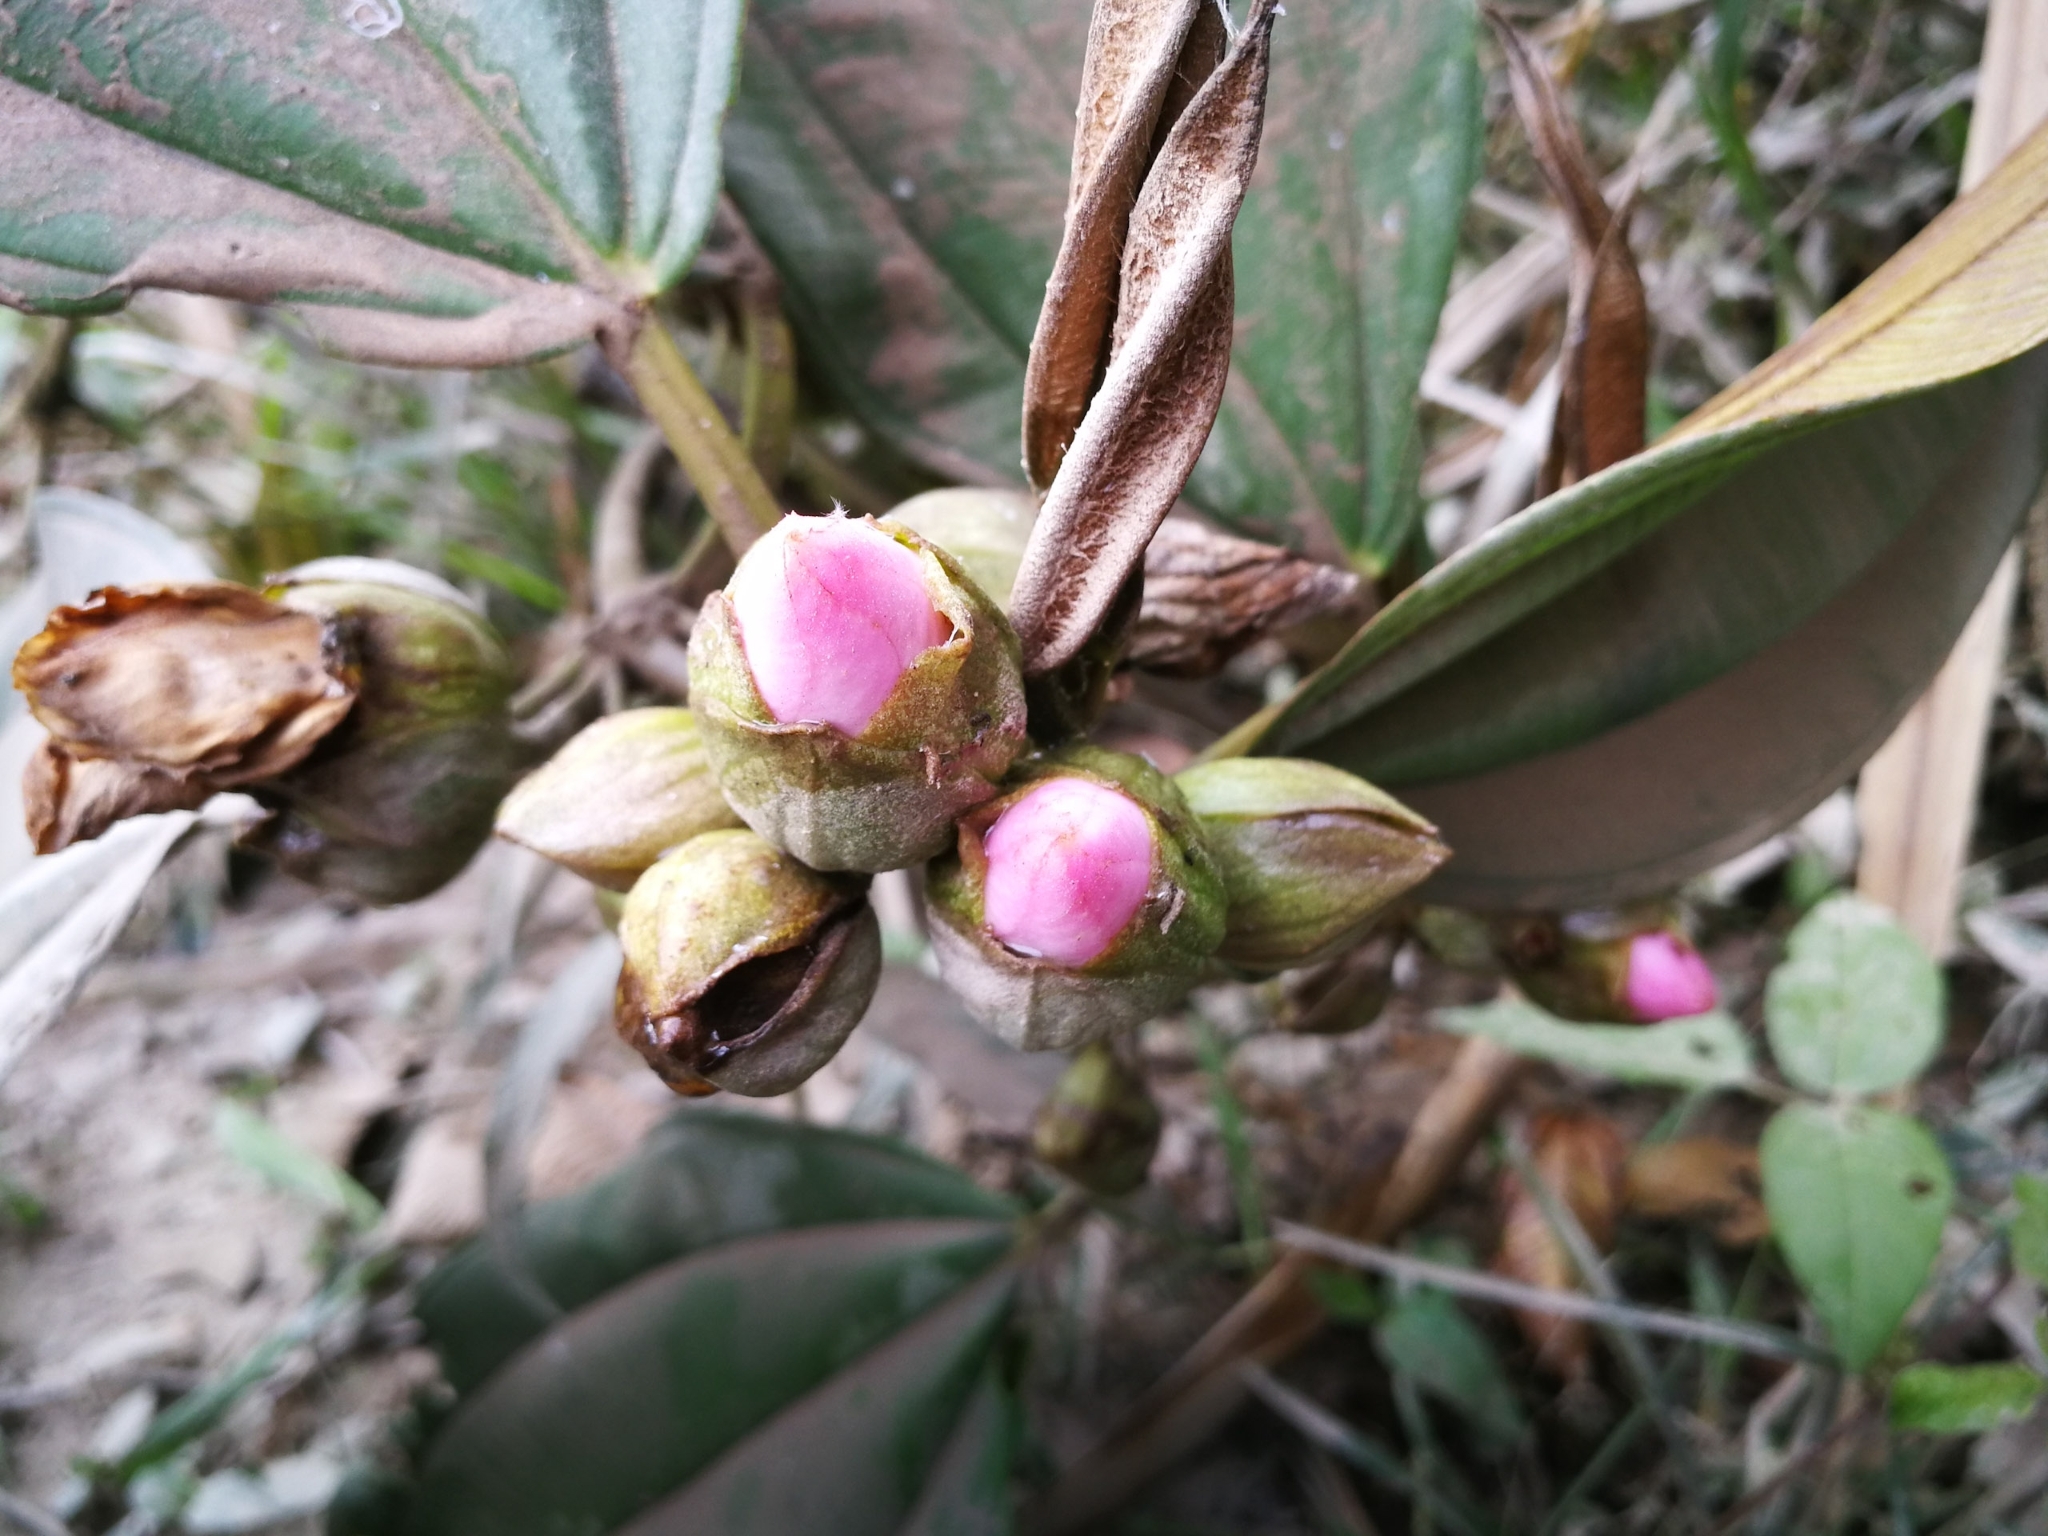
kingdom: Plantae
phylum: Tracheophyta
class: Magnoliopsida
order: Myrtales
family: Melastomataceae
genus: Blakea
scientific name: Blakea eriocalyx
